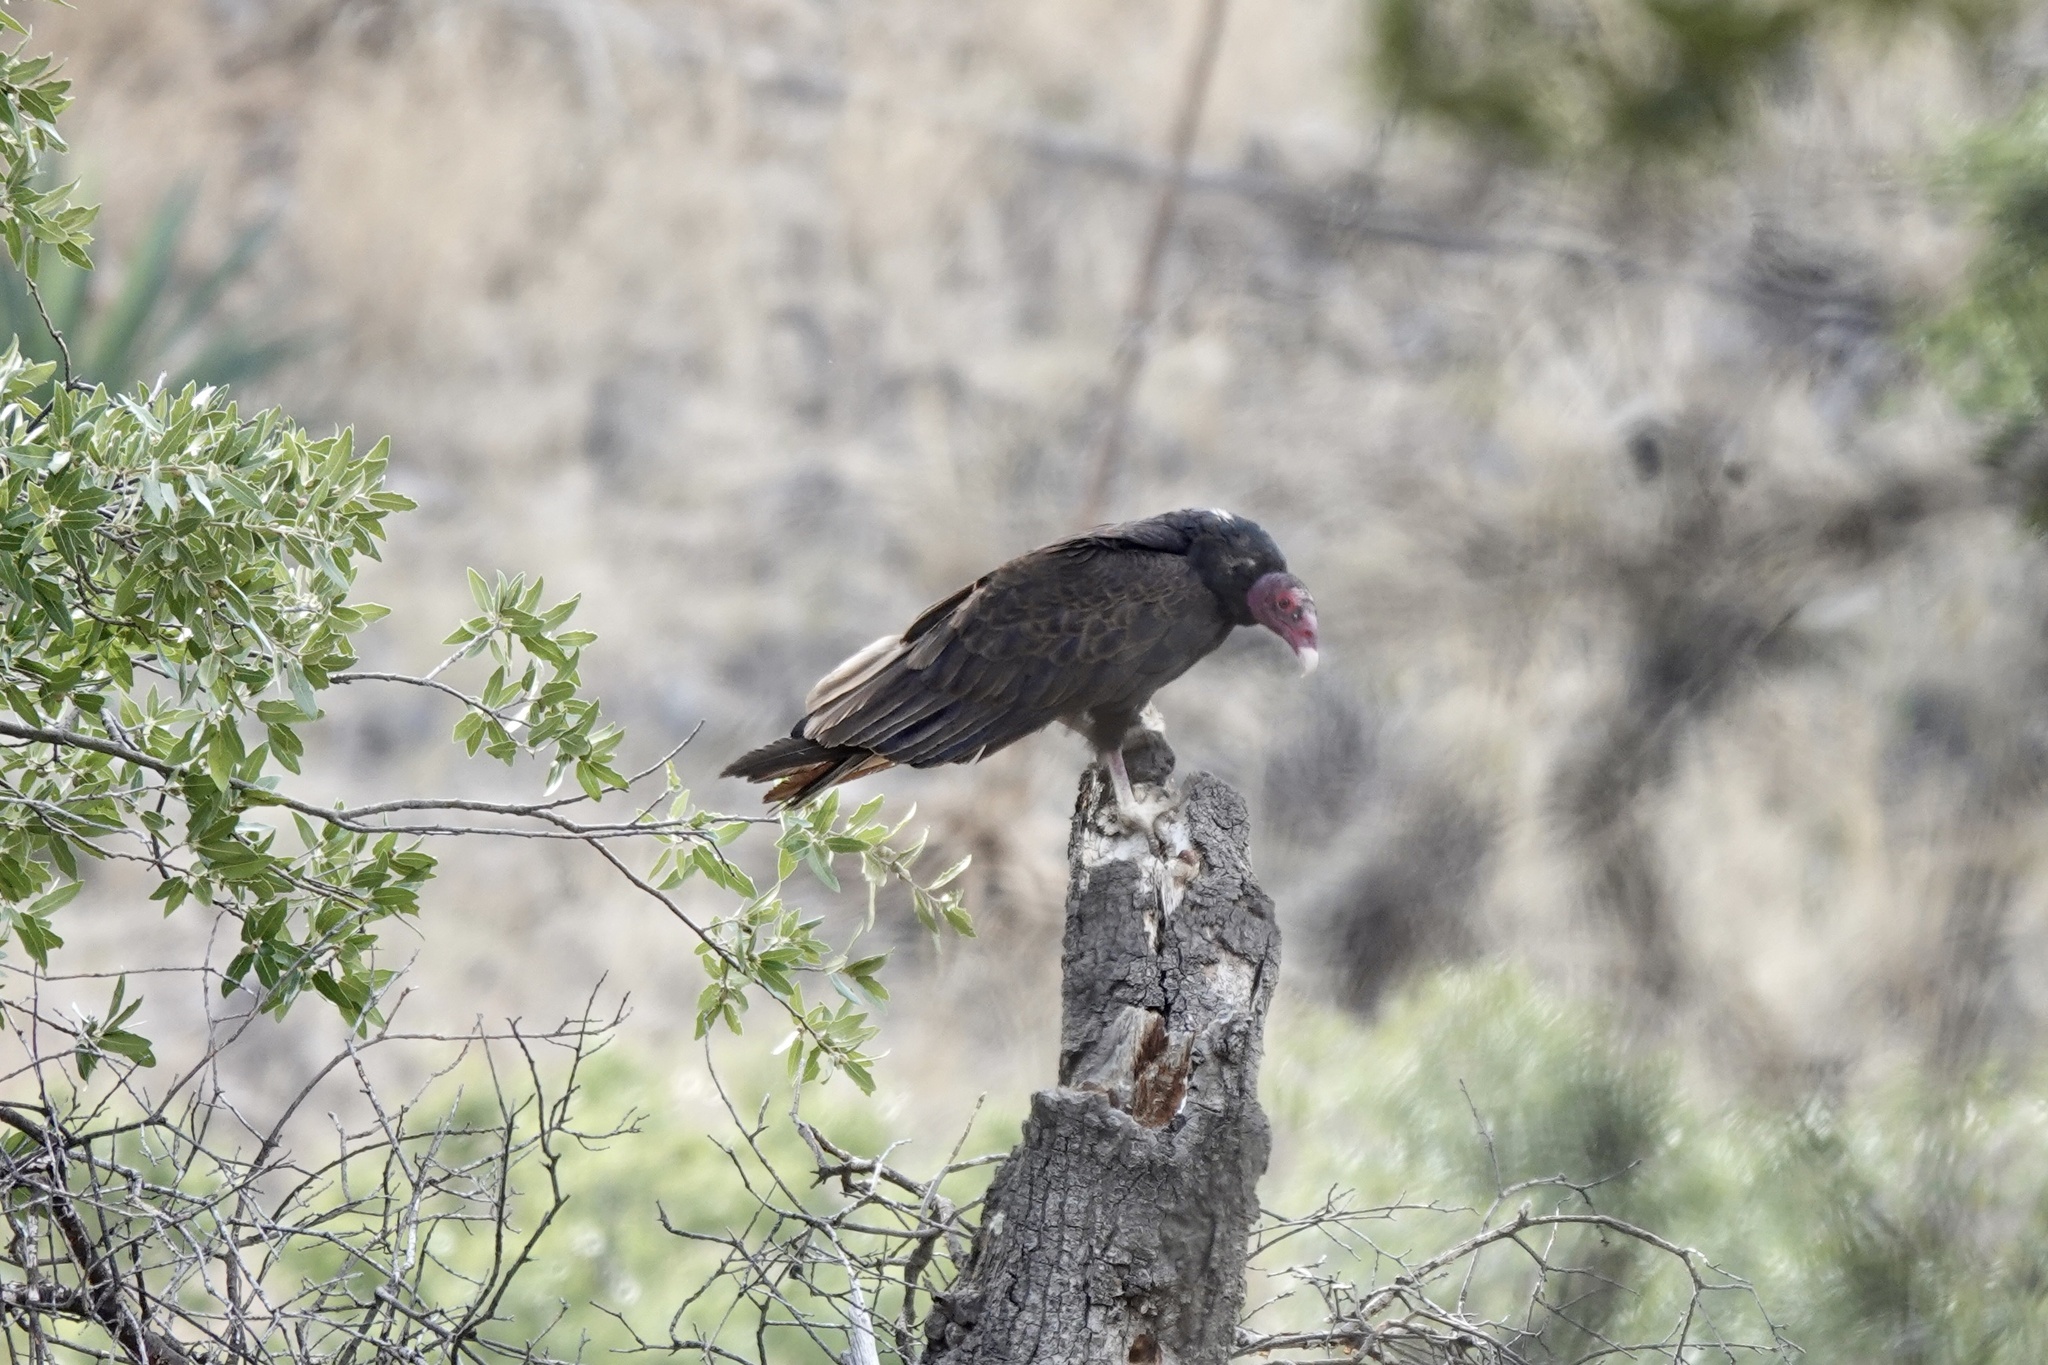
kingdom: Animalia
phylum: Chordata
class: Aves
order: Accipitriformes
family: Cathartidae
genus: Cathartes
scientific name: Cathartes aura
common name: Turkey vulture
